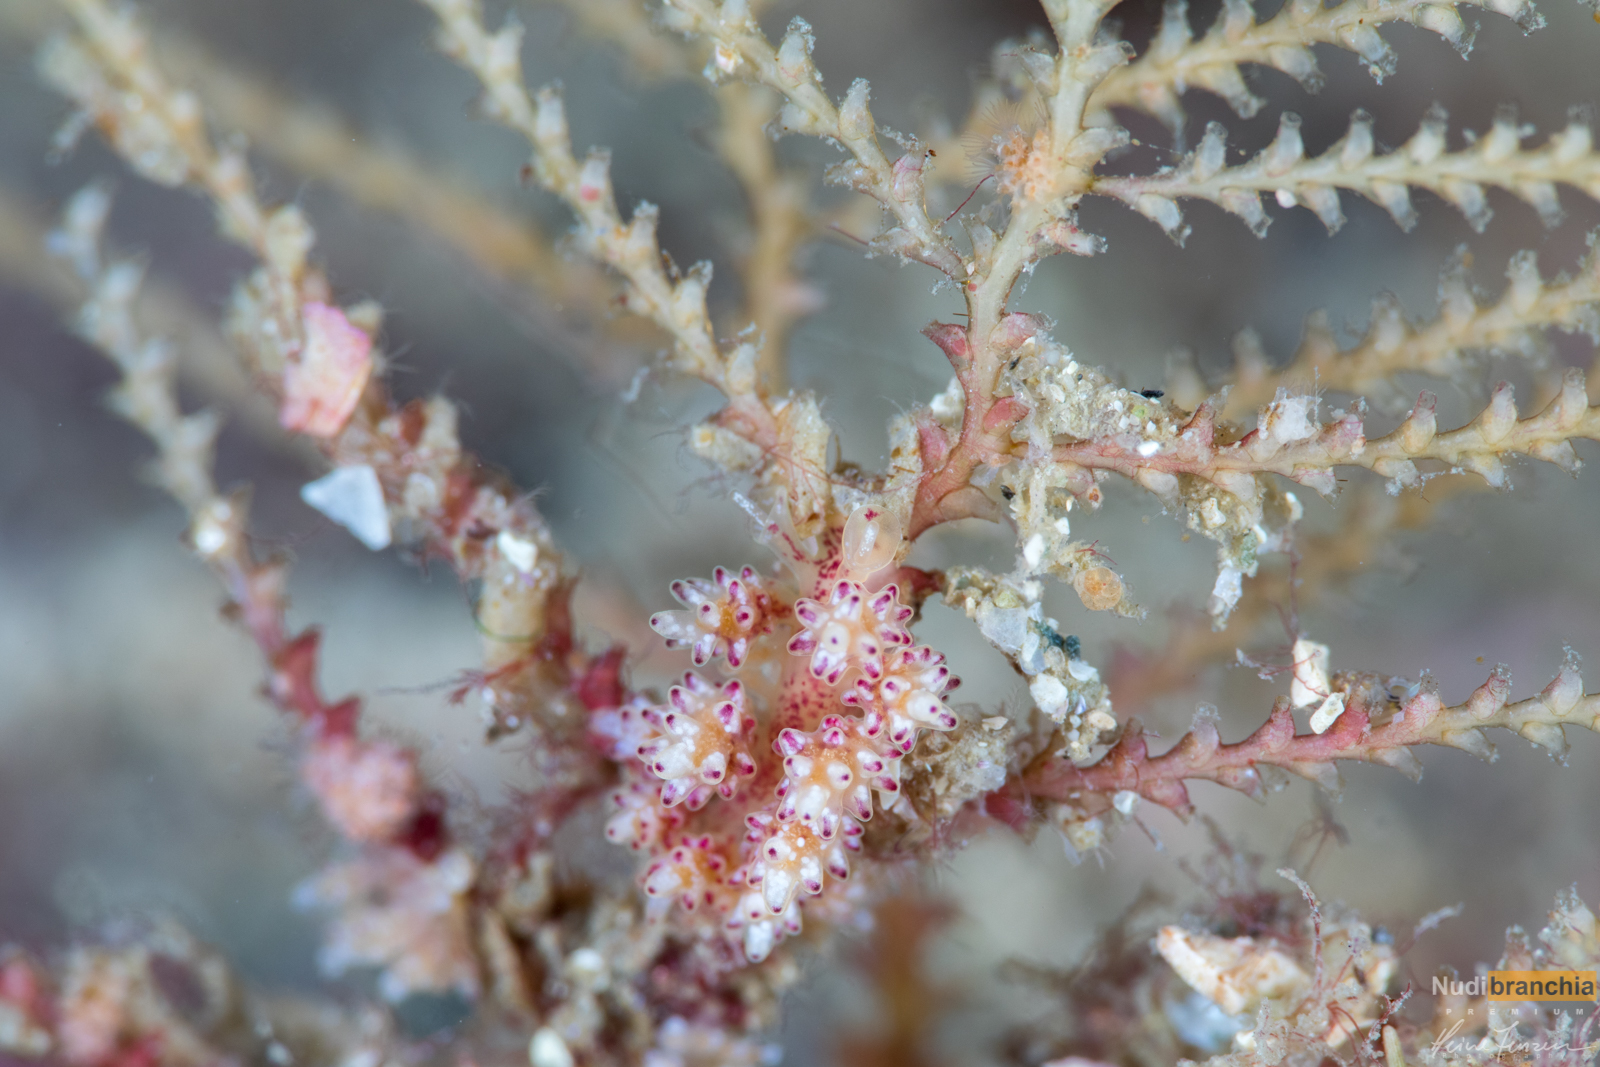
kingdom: Animalia
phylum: Mollusca
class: Gastropoda
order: Nudibranchia
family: Dotidae
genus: Doto
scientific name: Doto coronata
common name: Coronate doto
